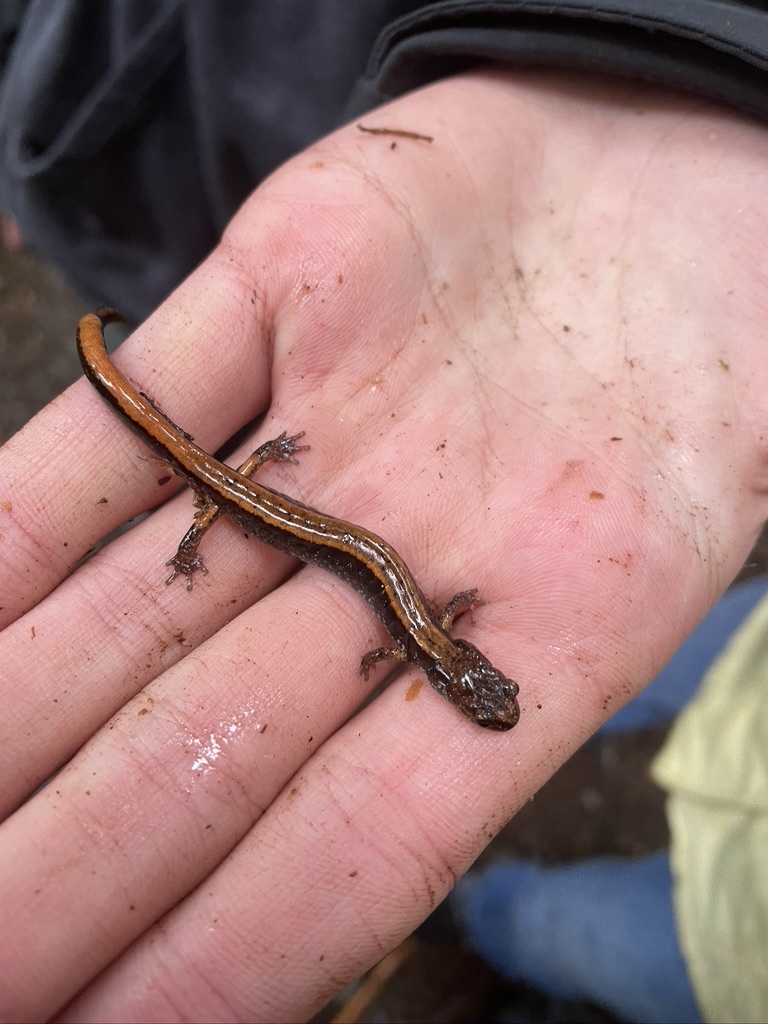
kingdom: Animalia
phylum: Chordata
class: Amphibia
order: Caudata
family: Plethodontidae
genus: Plethodon
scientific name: Plethodon vehiculum
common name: Western red-backed salamander
